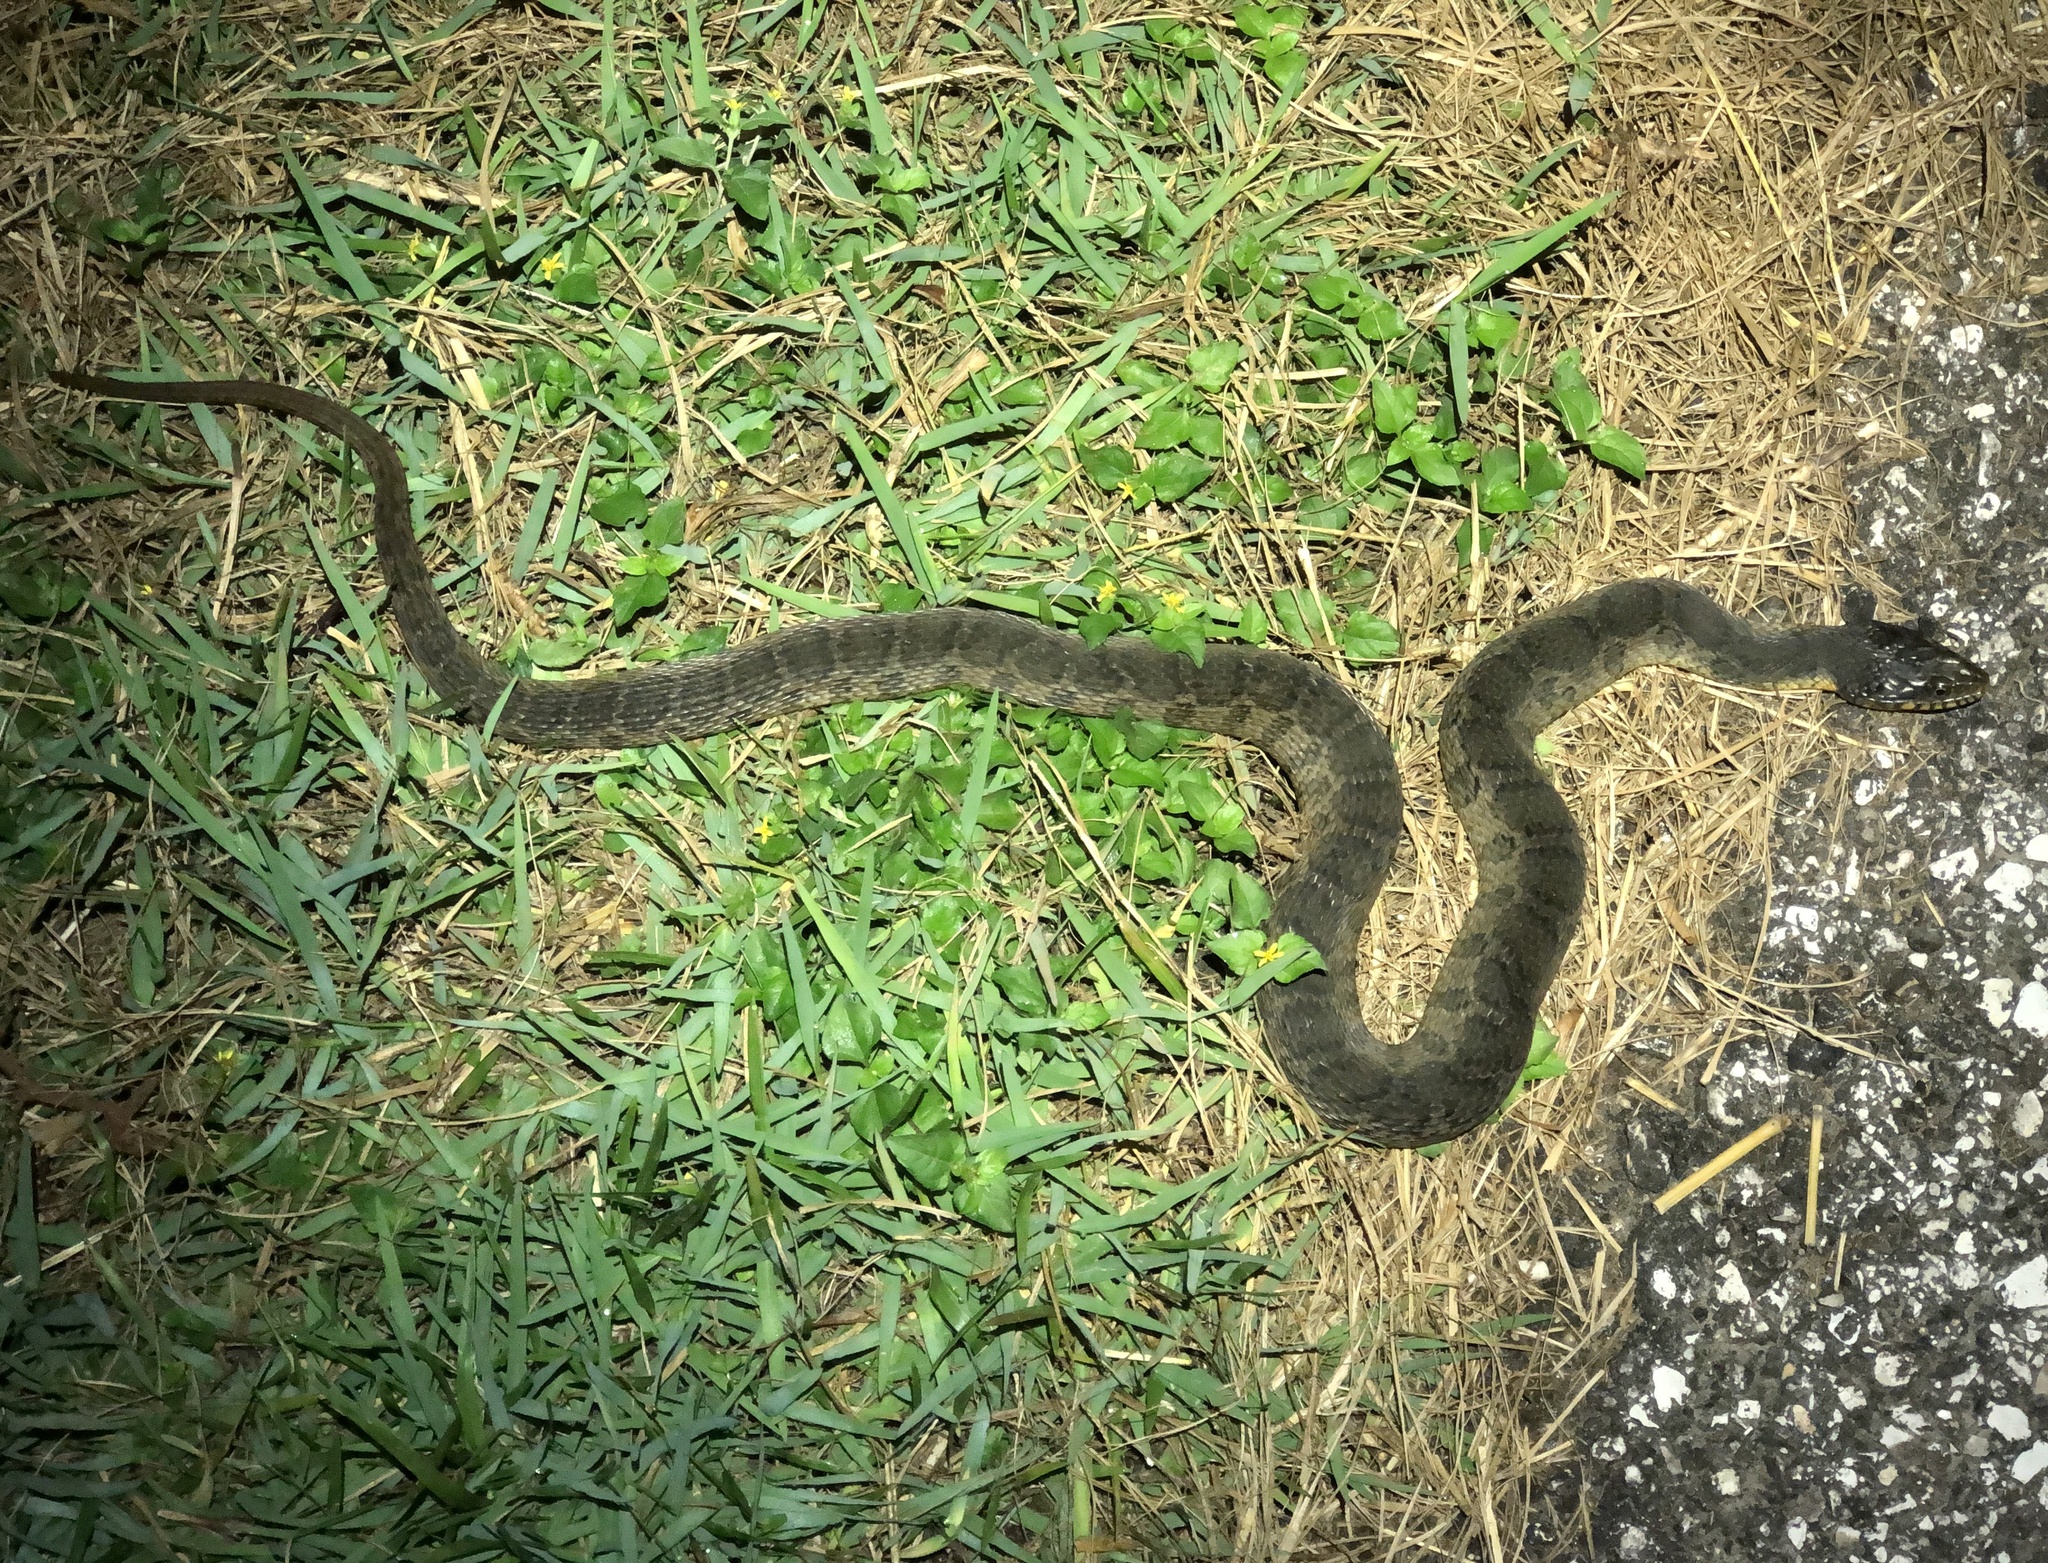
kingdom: Animalia
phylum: Chordata
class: Squamata
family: Colubridae
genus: Nerodia
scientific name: Nerodia erythrogaster
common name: Plainbelly water snake
